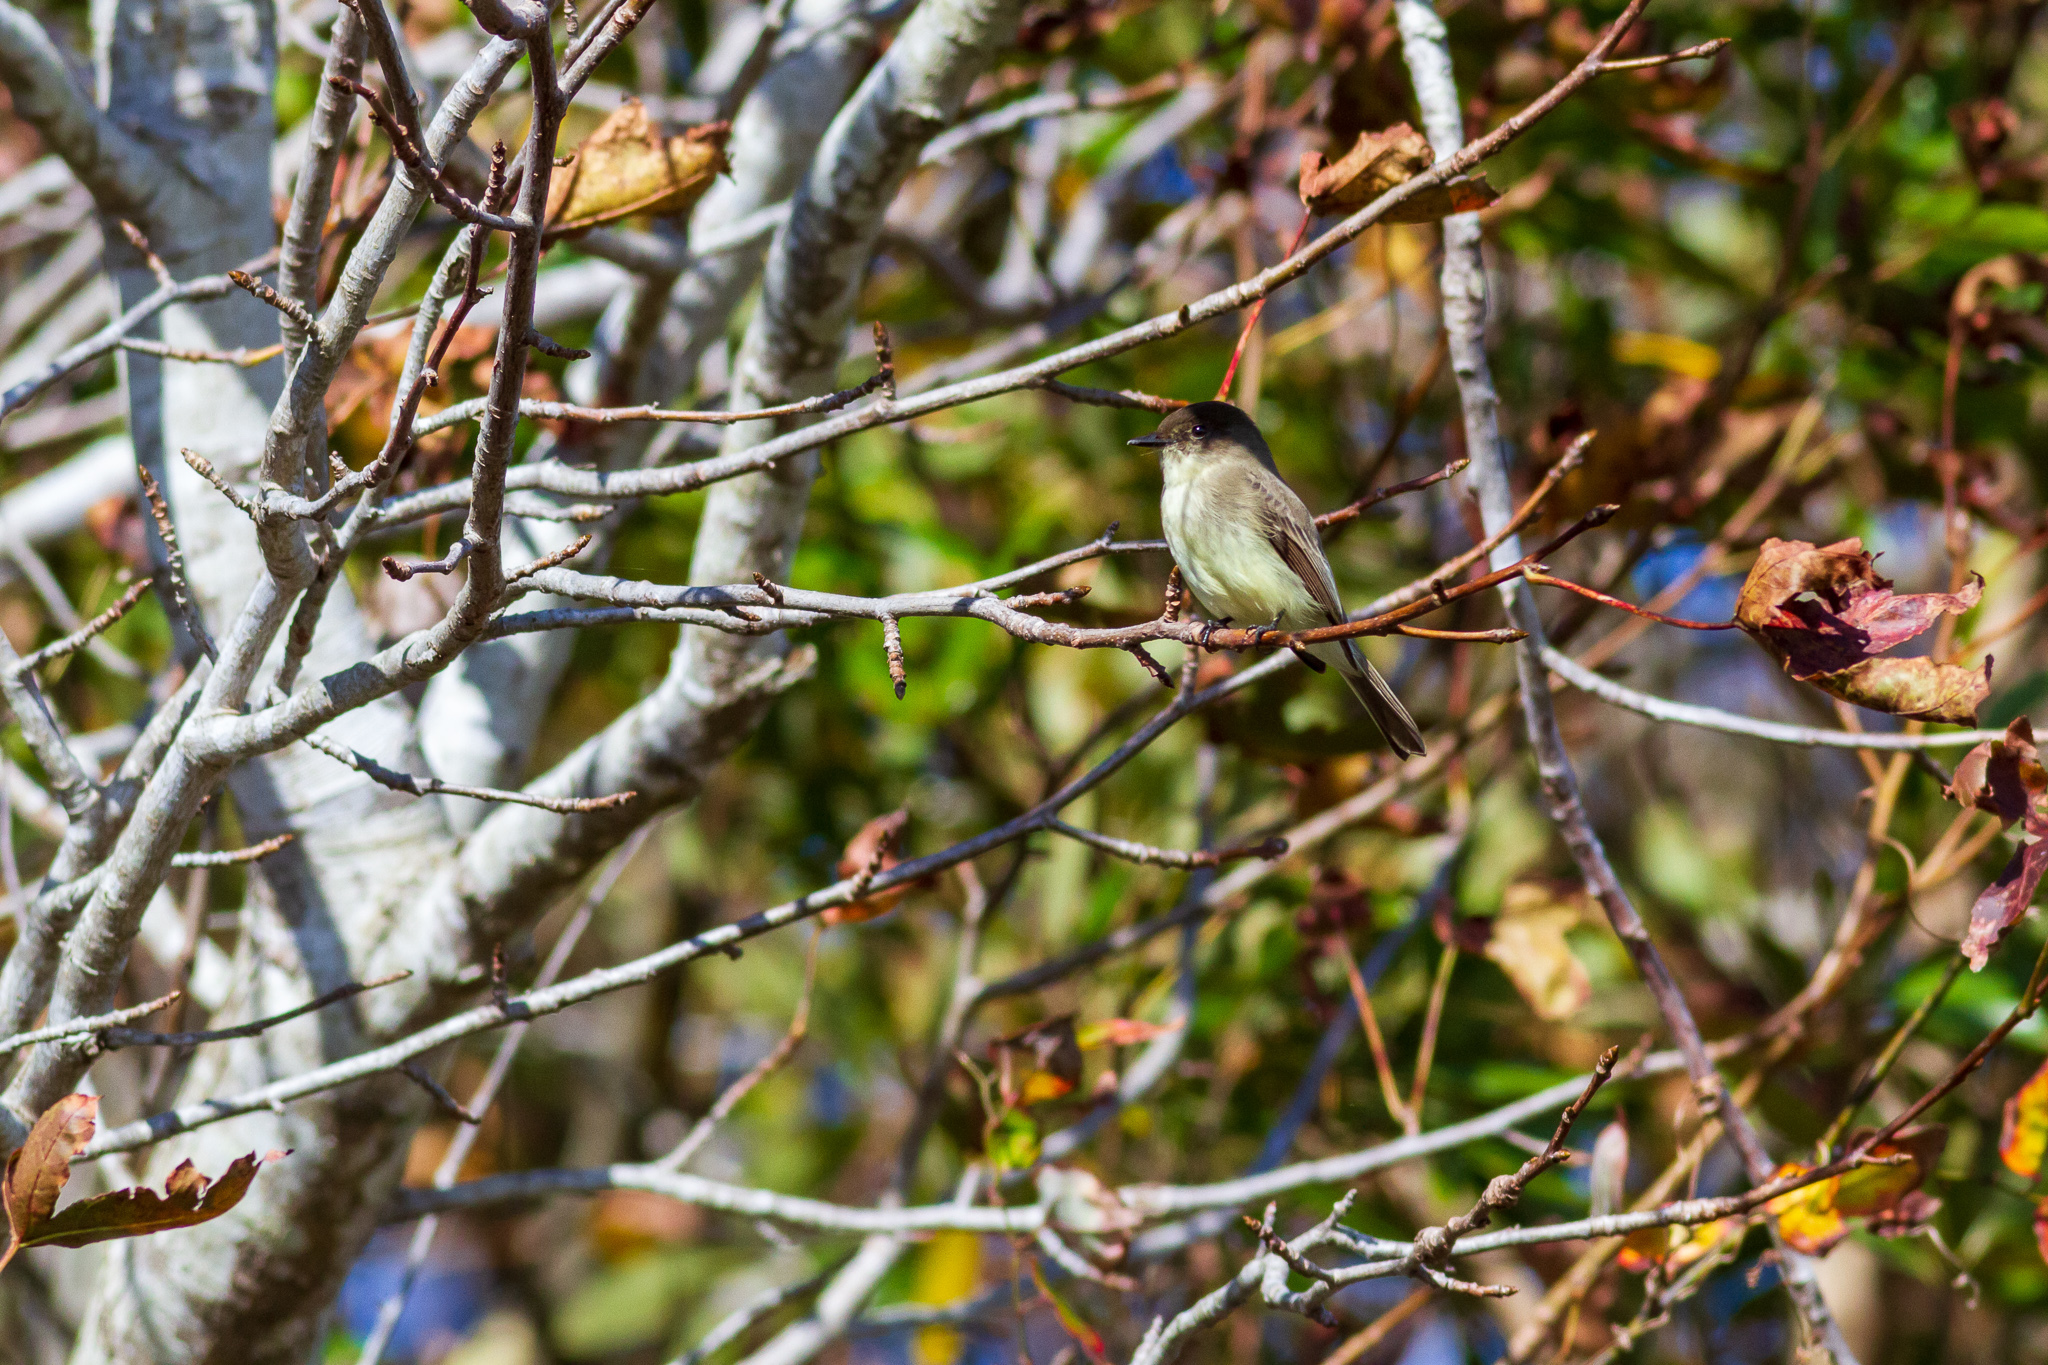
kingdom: Animalia
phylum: Chordata
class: Aves
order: Passeriformes
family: Tyrannidae
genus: Sayornis
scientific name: Sayornis phoebe
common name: Eastern phoebe
